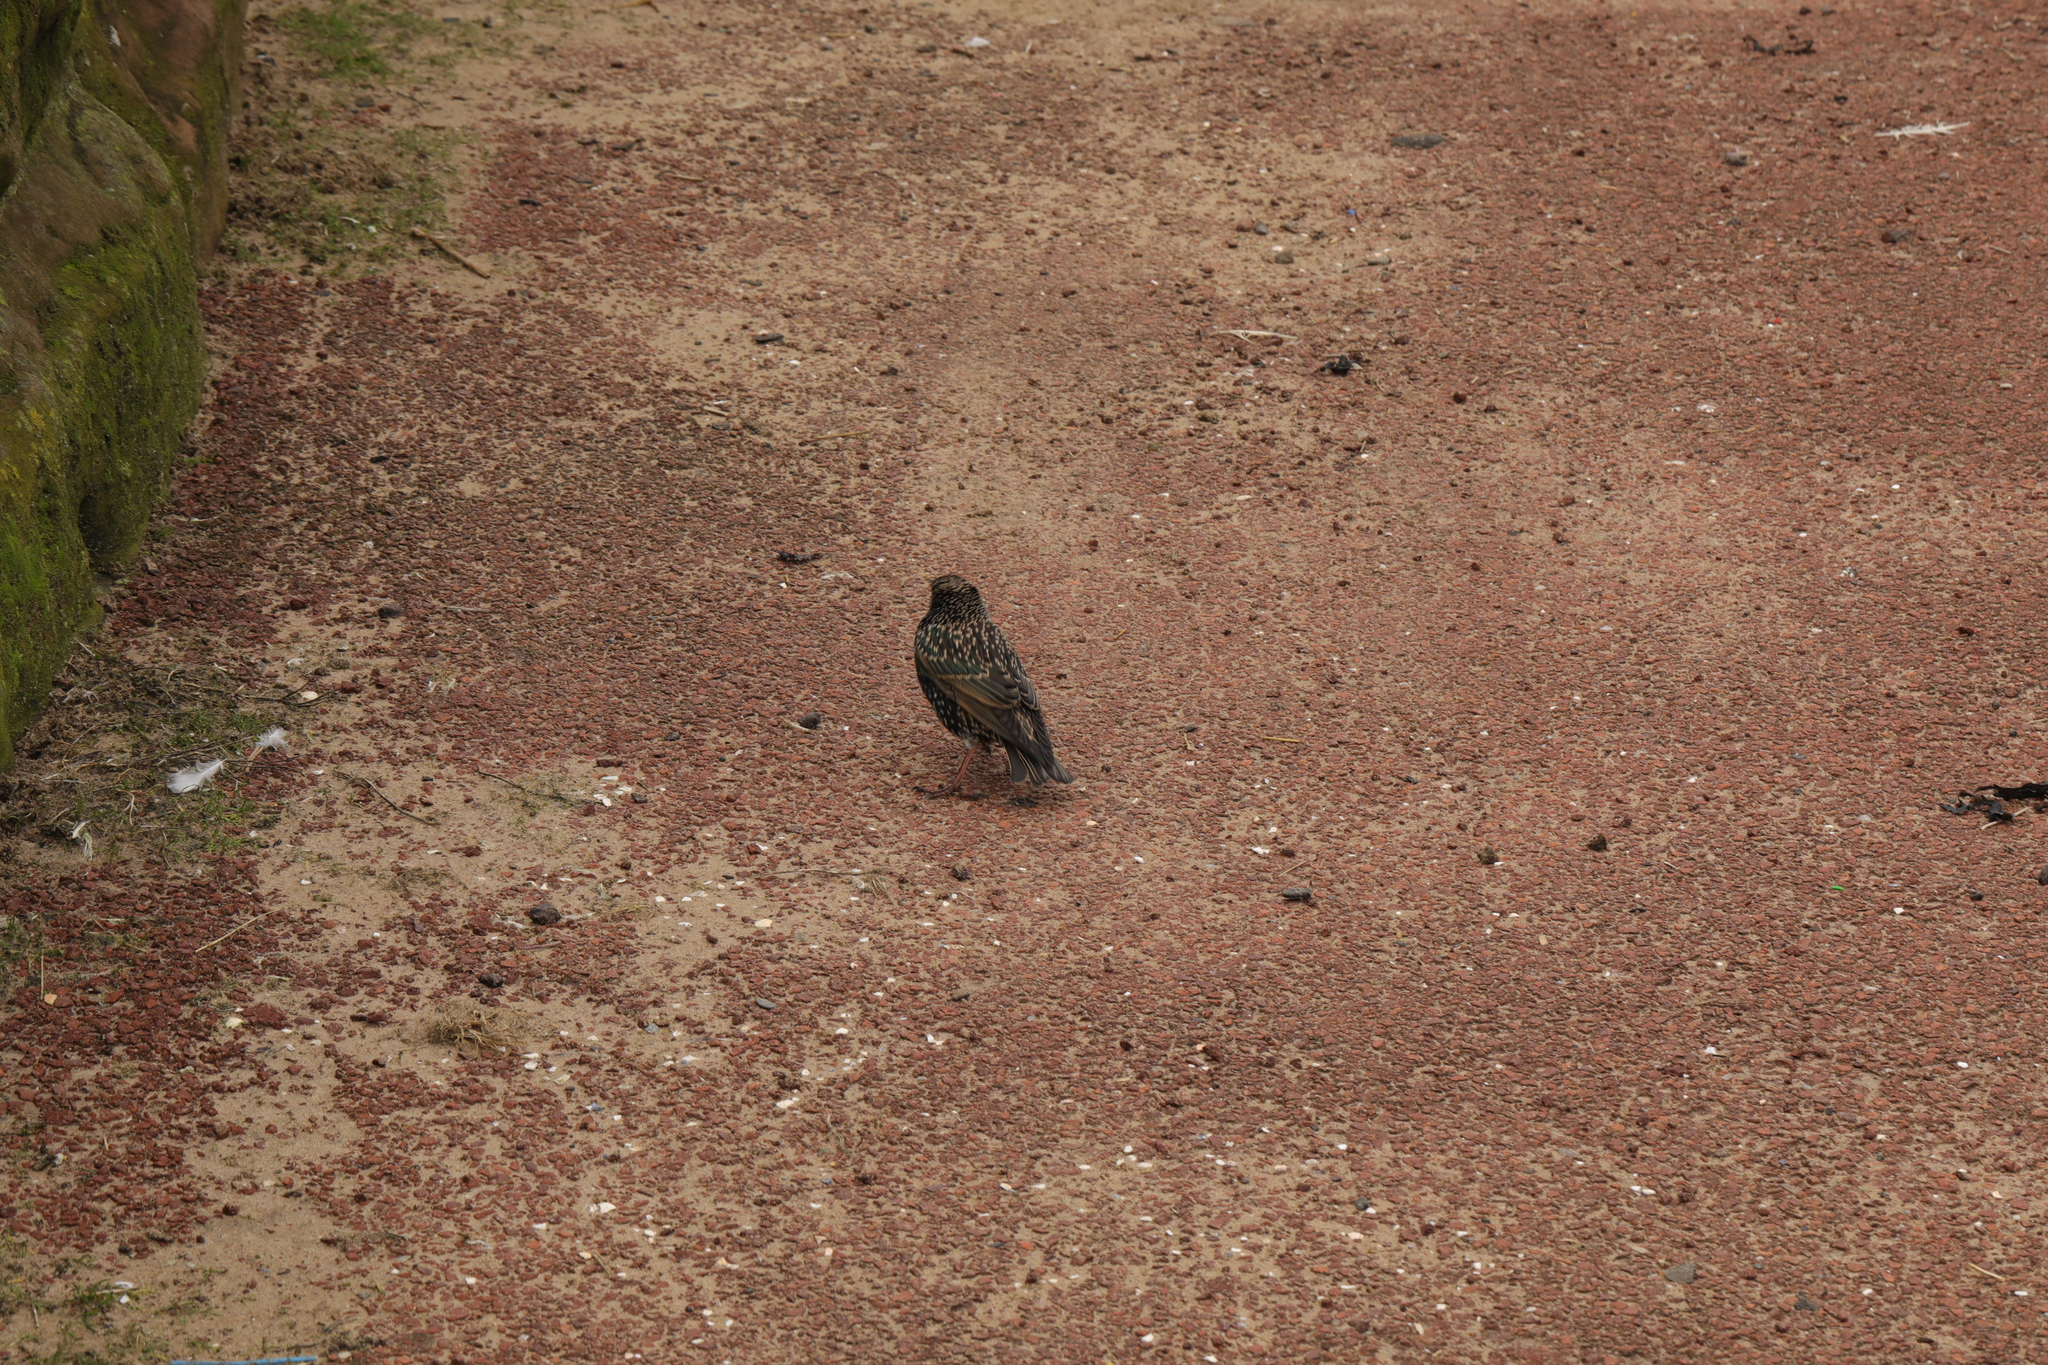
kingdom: Animalia
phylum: Chordata
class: Aves
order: Passeriformes
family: Sturnidae
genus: Sturnus
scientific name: Sturnus vulgaris
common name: Common starling
